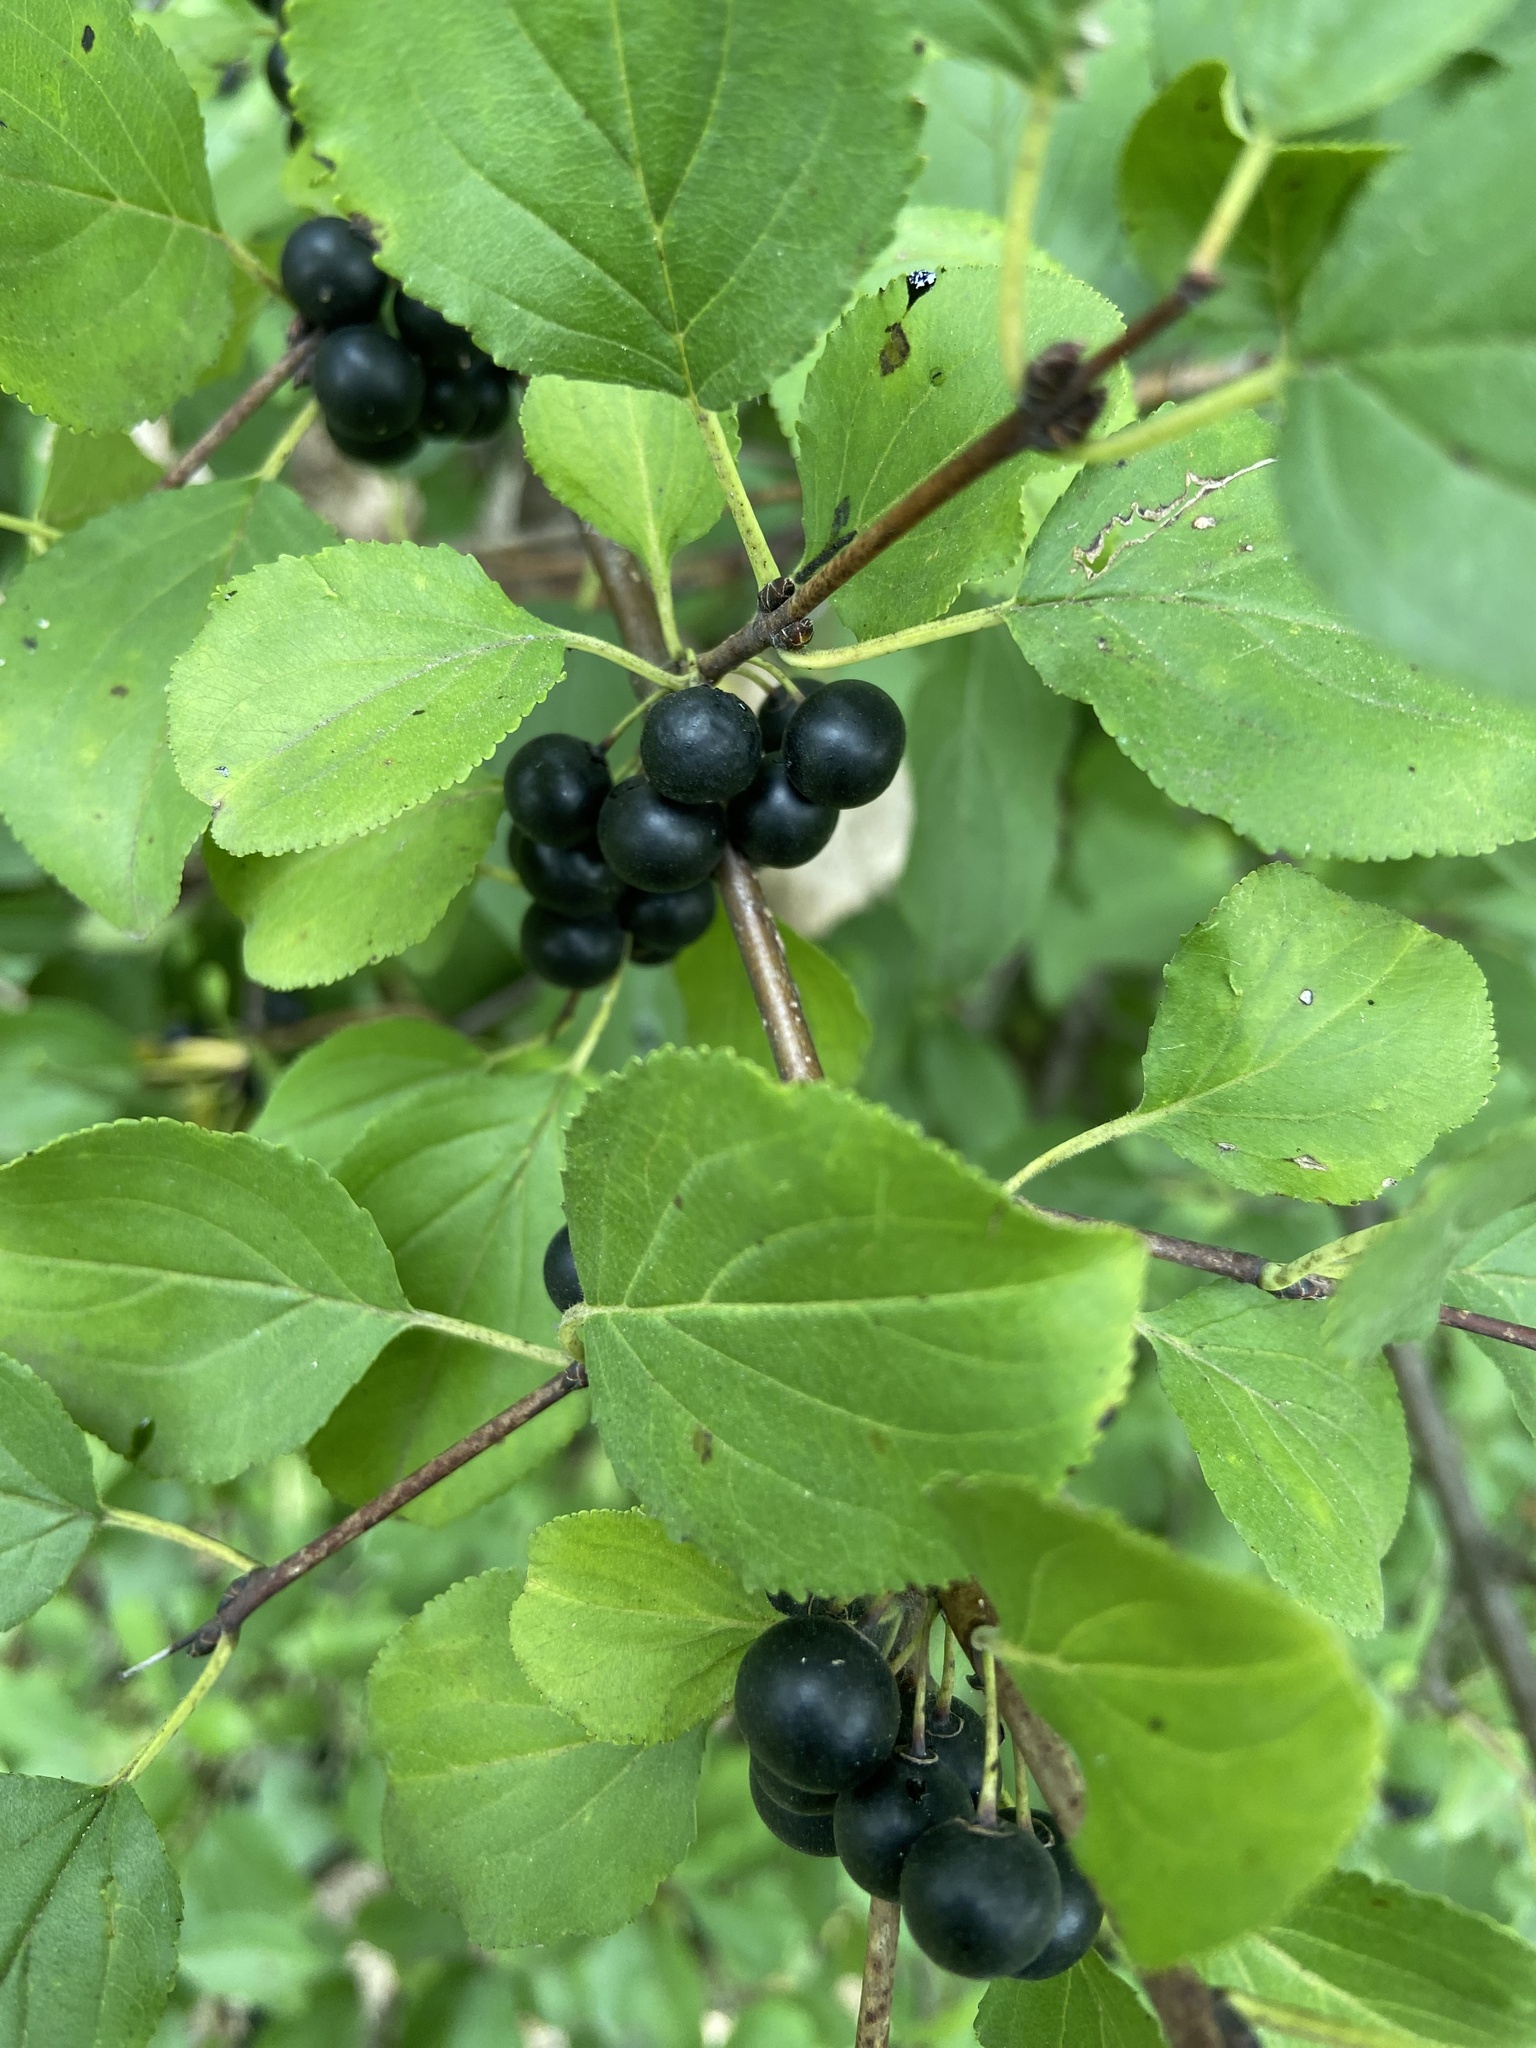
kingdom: Plantae
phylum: Tracheophyta
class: Magnoliopsida
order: Rosales
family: Rhamnaceae
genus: Rhamnus
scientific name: Rhamnus cathartica
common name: Common buckthorn
